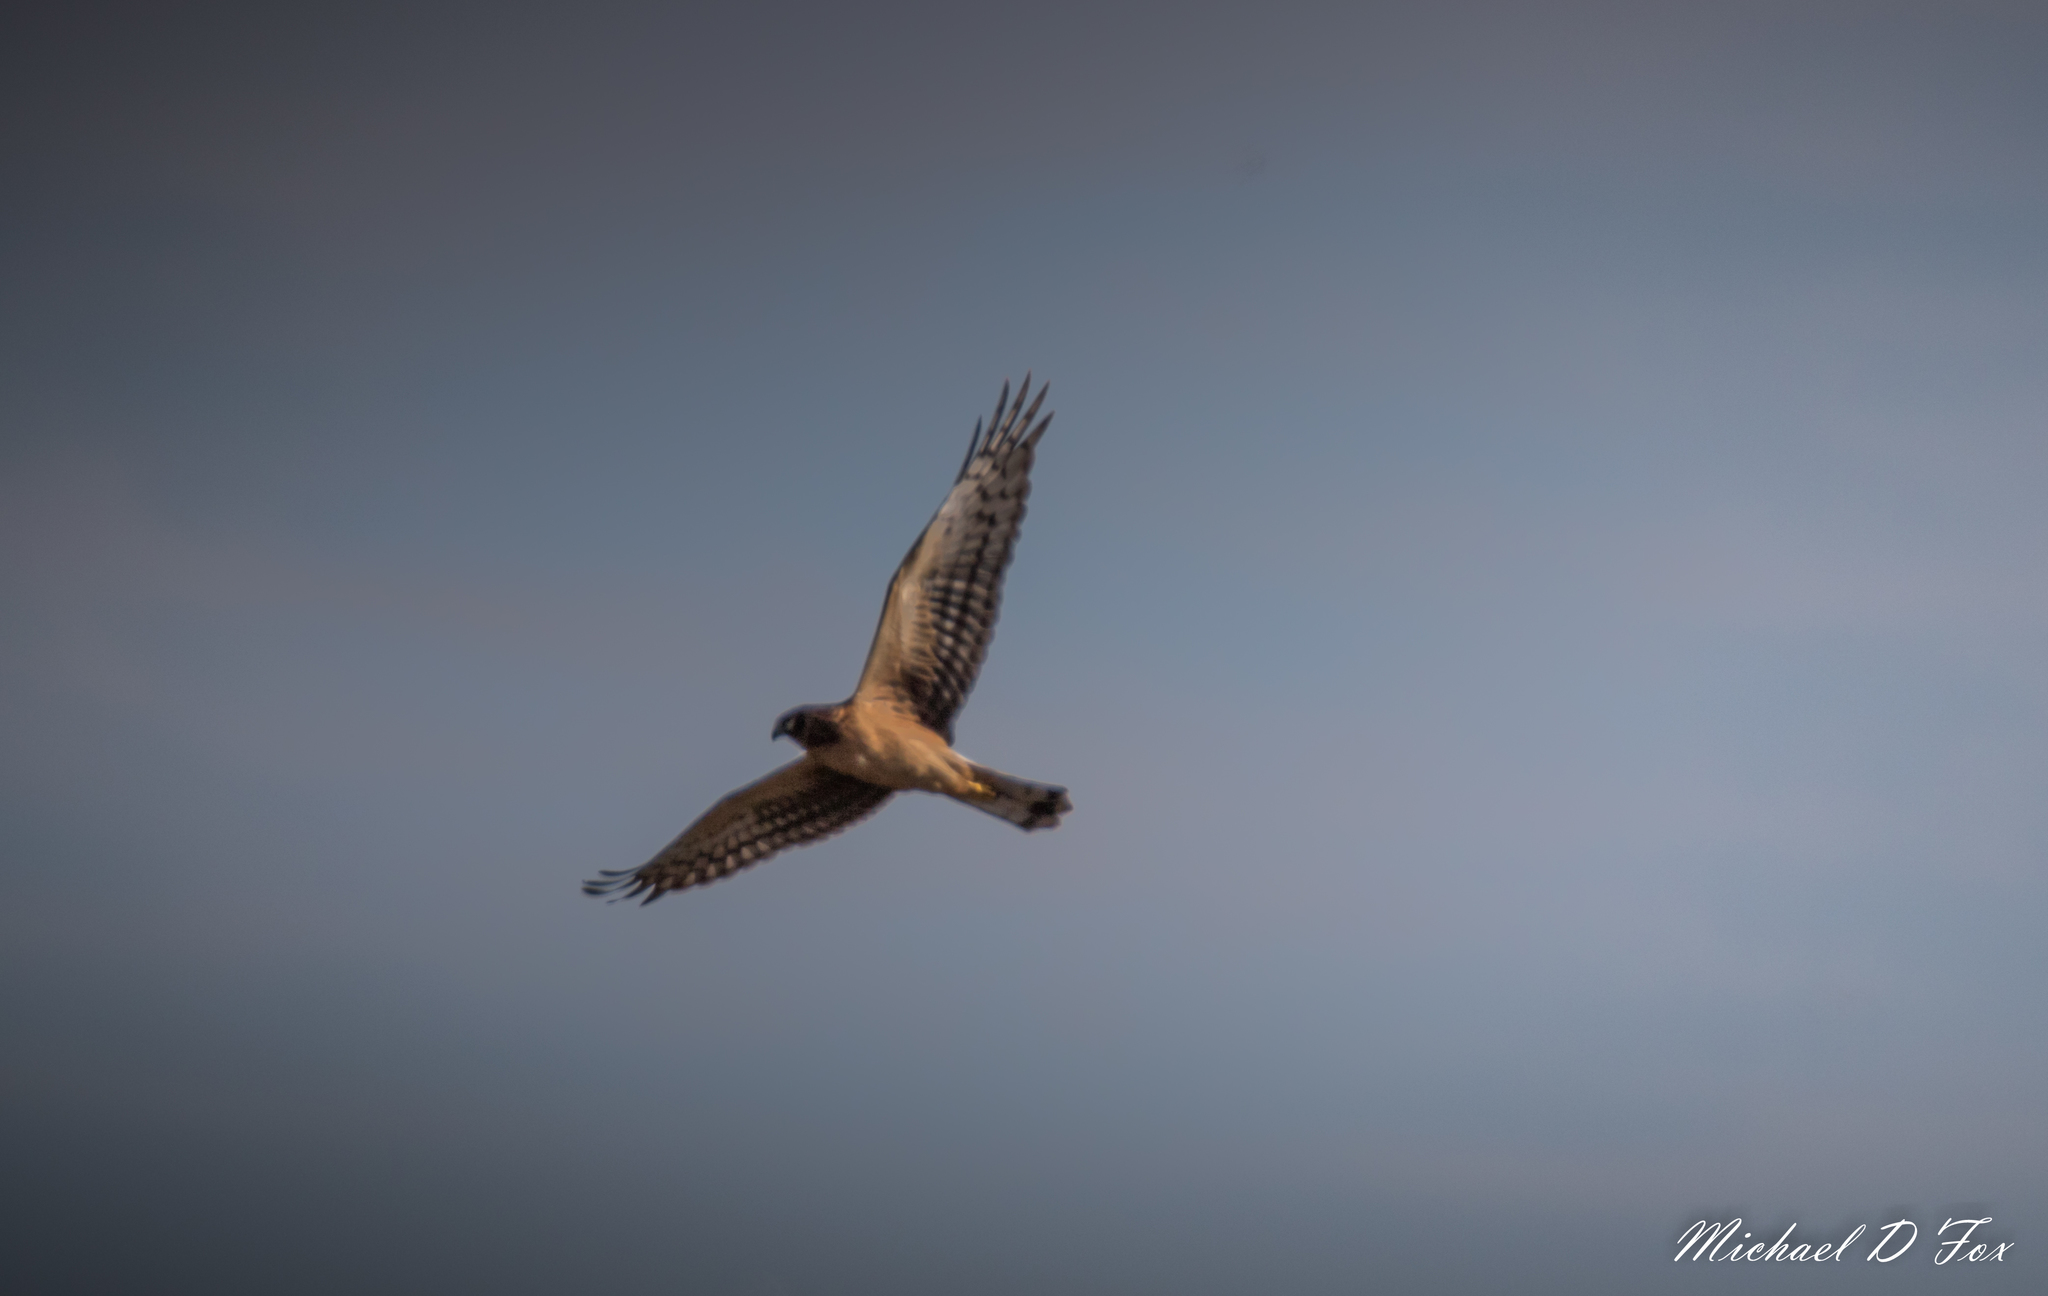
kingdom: Animalia
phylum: Chordata
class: Aves
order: Accipitriformes
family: Accipitridae
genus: Circus
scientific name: Circus cyaneus
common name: Hen harrier
